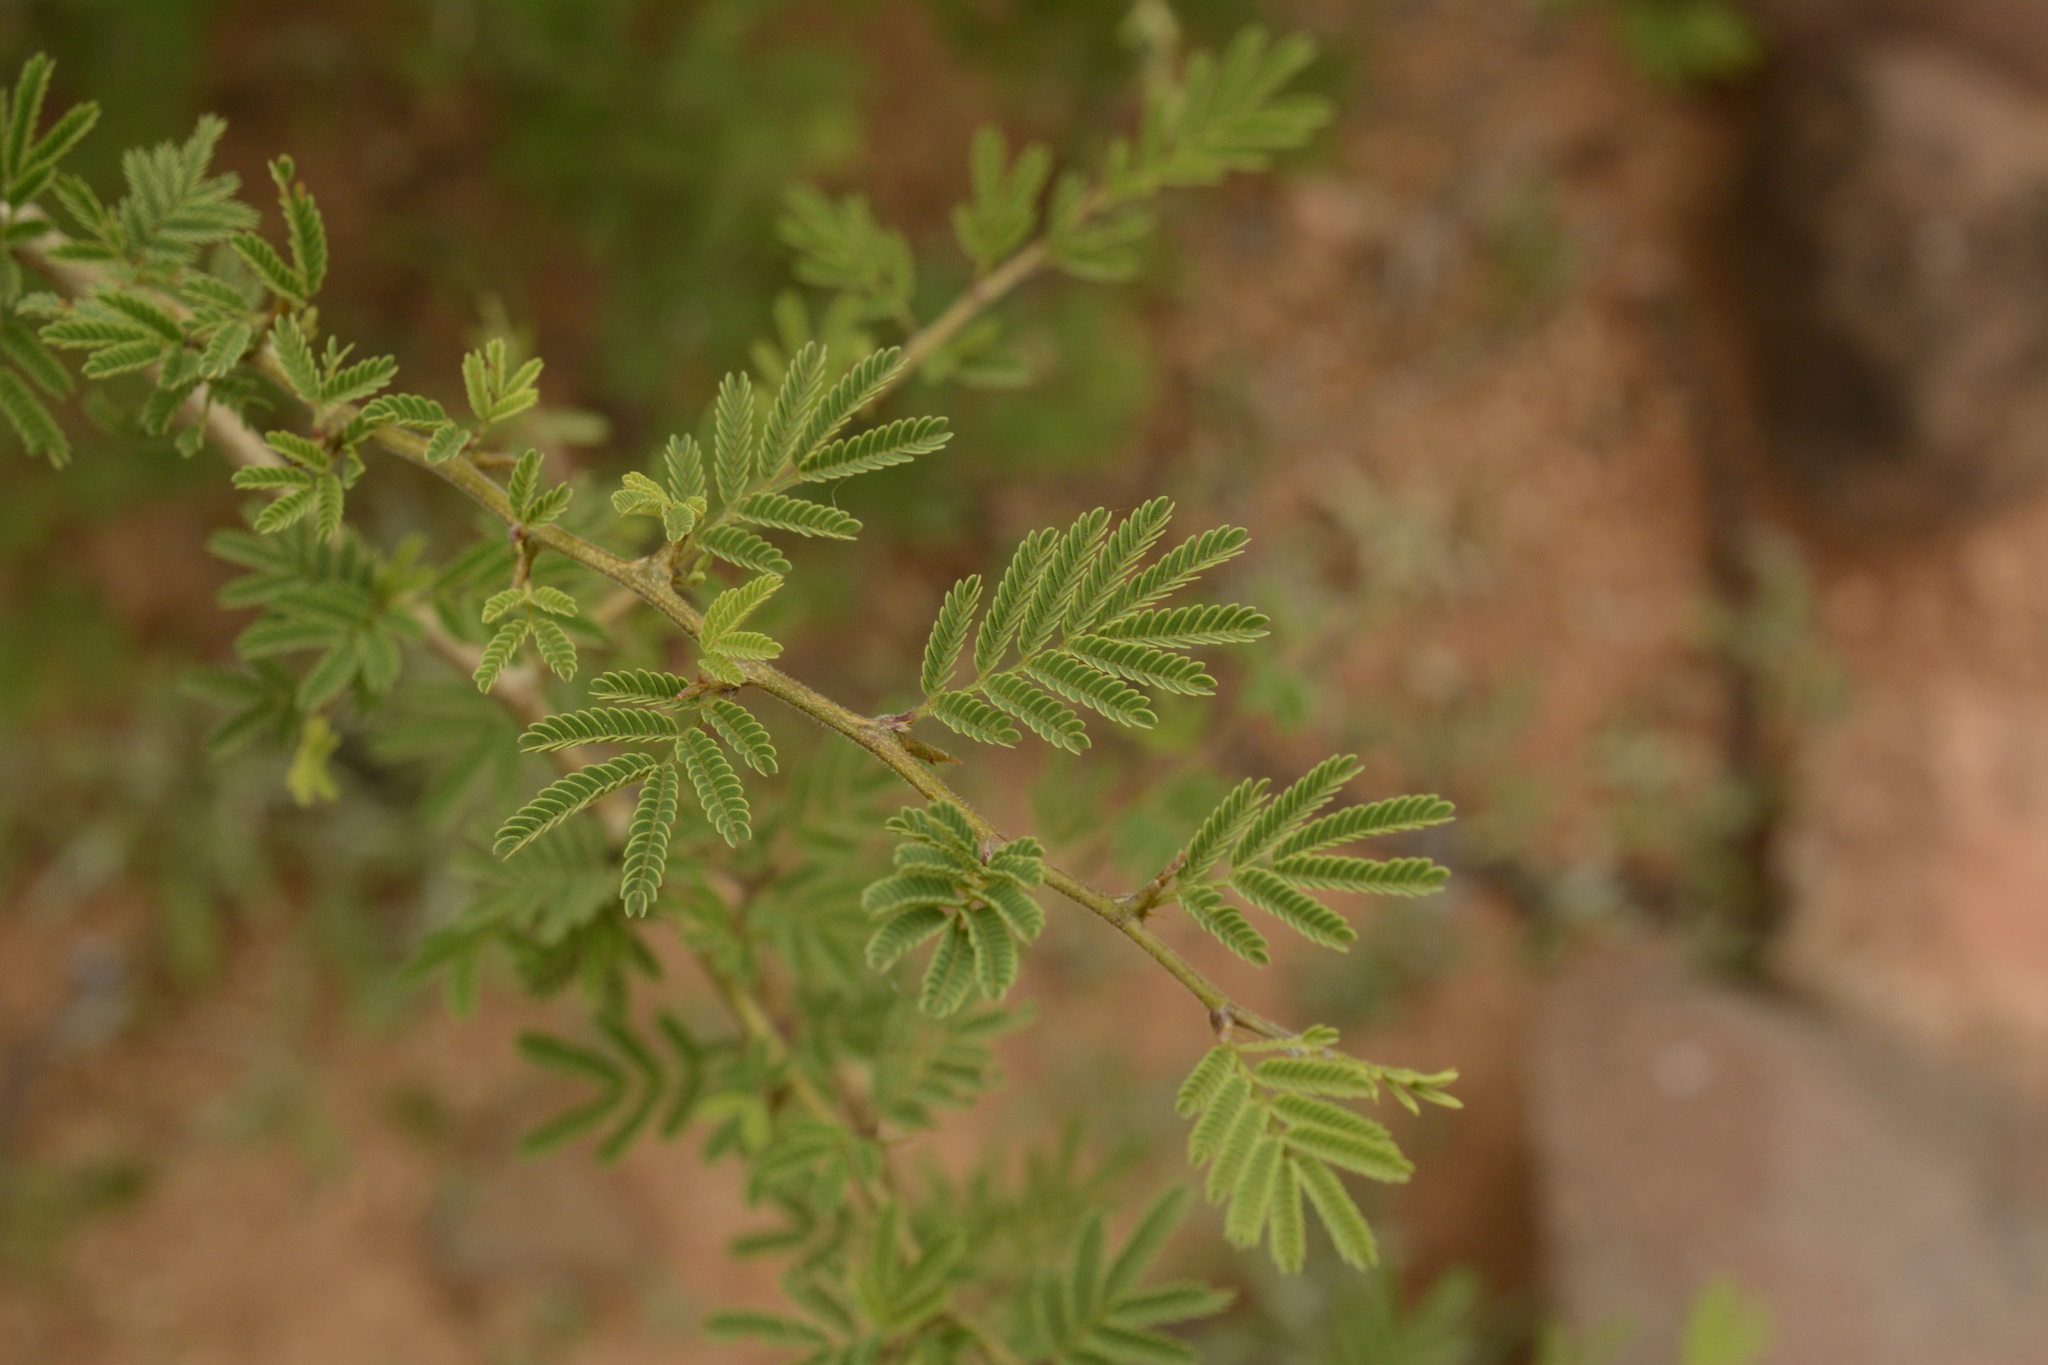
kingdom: Plantae
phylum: Tracheophyta
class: Magnoliopsida
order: Fabales
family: Fabaceae
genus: Dichrostachys
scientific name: Dichrostachys cinerea
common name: Sicklebush
